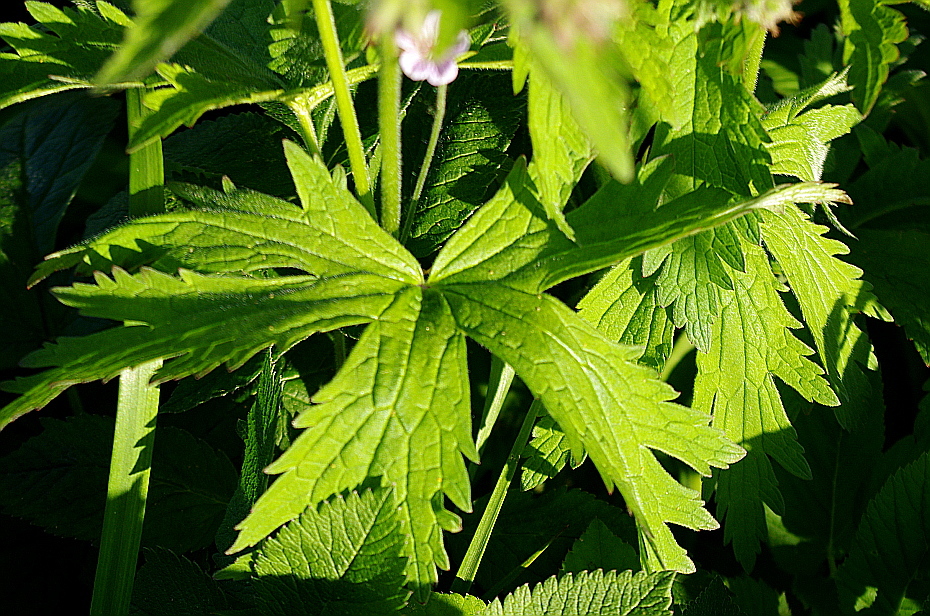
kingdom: Plantae
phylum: Tracheophyta
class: Magnoliopsida
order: Geraniales
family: Geraniaceae
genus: Geranium
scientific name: Geranium sylvaticum
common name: Wood crane's-bill
